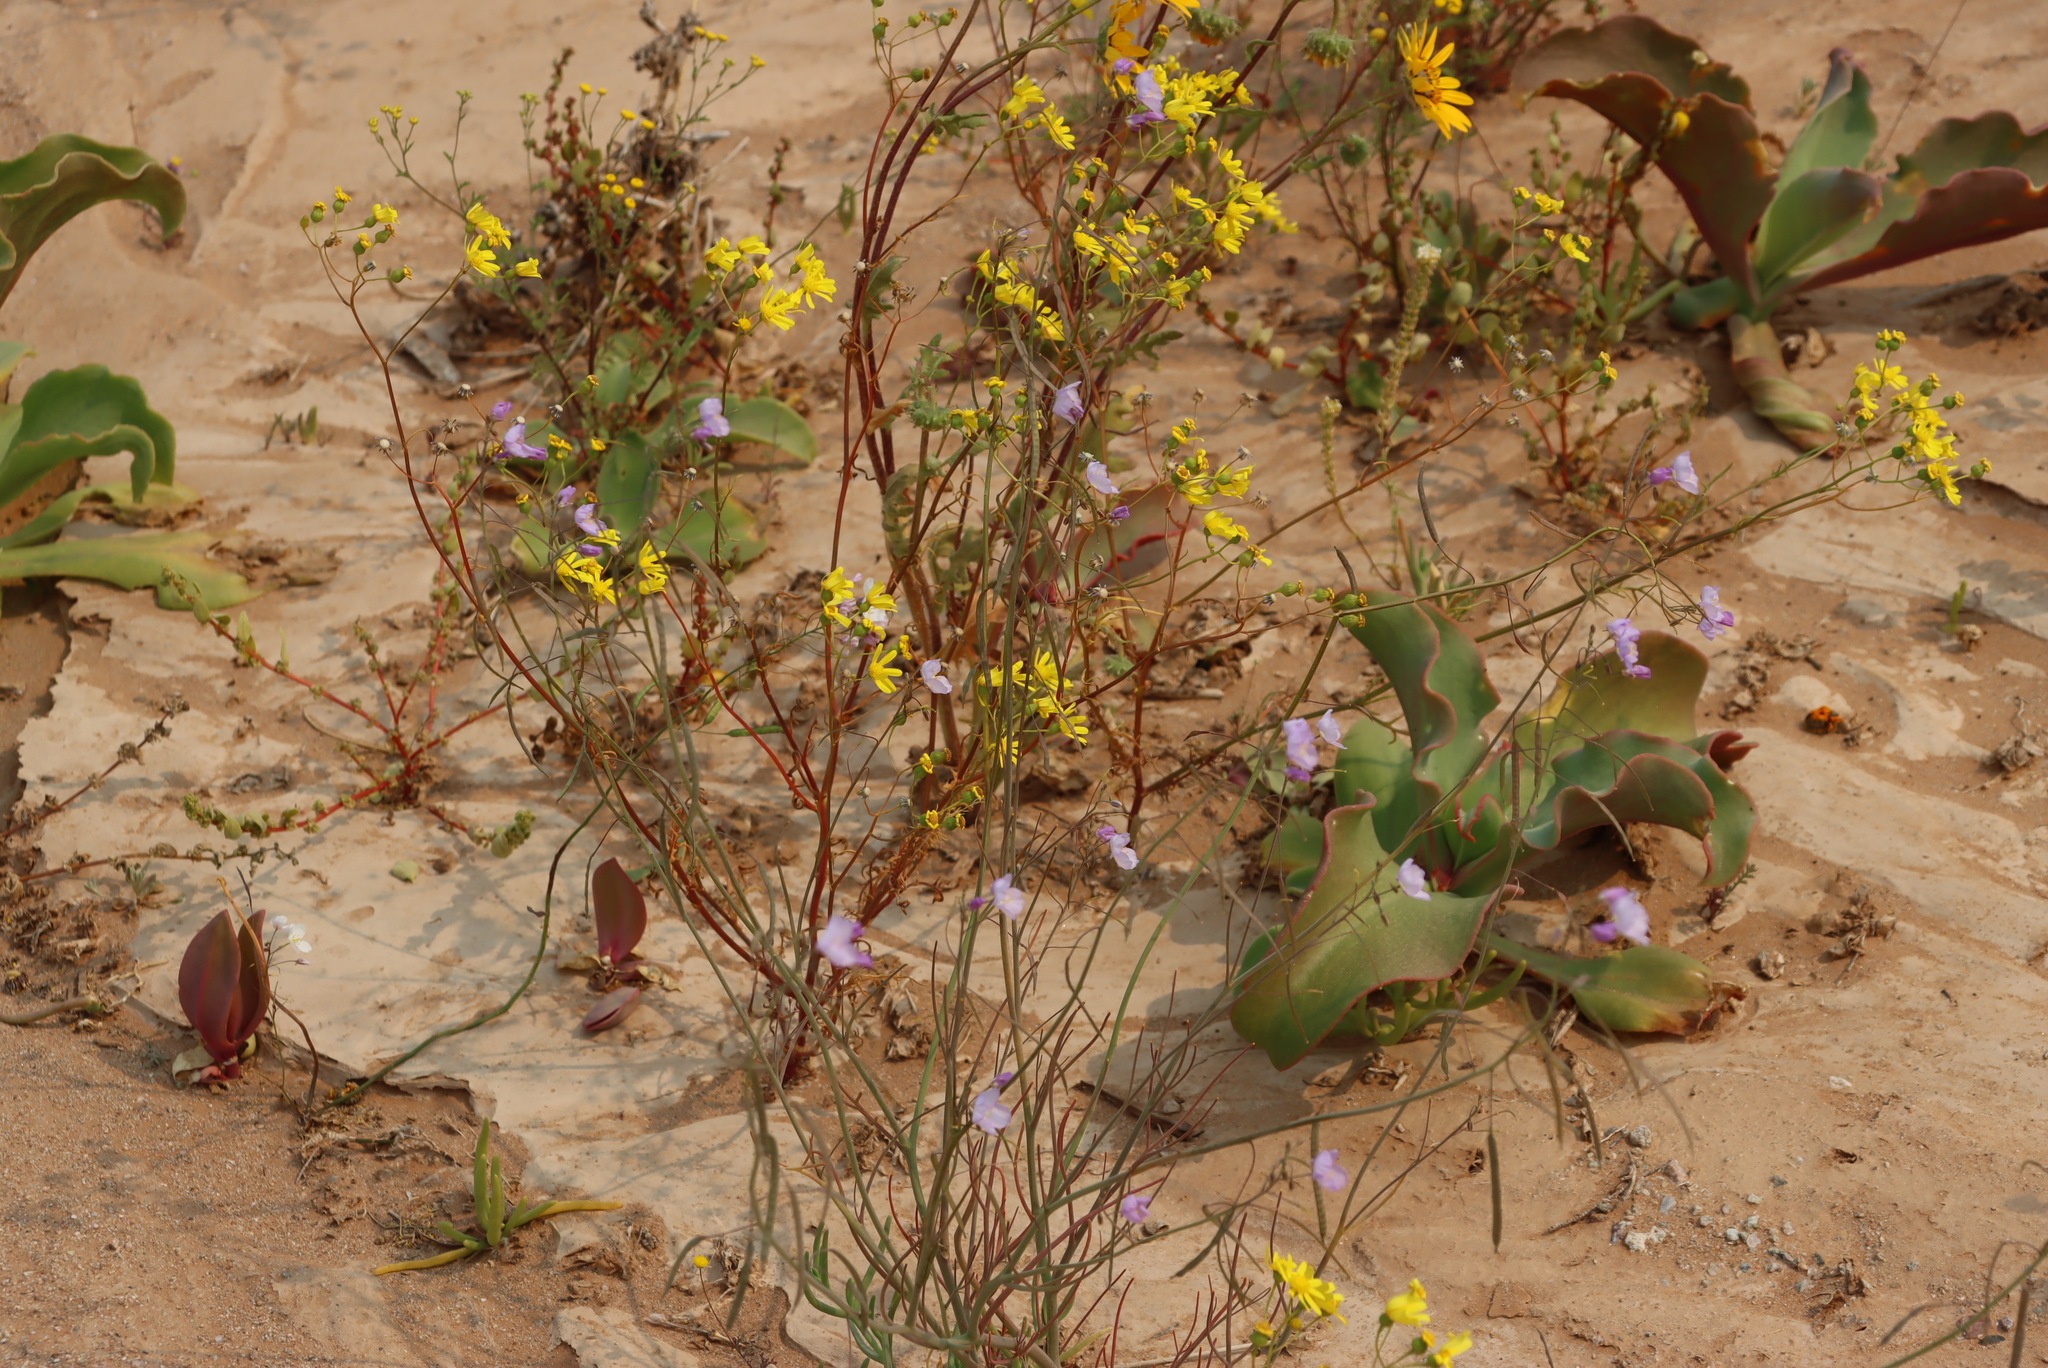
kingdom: Plantae
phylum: Tracheophyta
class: Magnoliopsida
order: Brassicales
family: Brassicaceae
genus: Heliophila
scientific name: Heliophila trifurca
